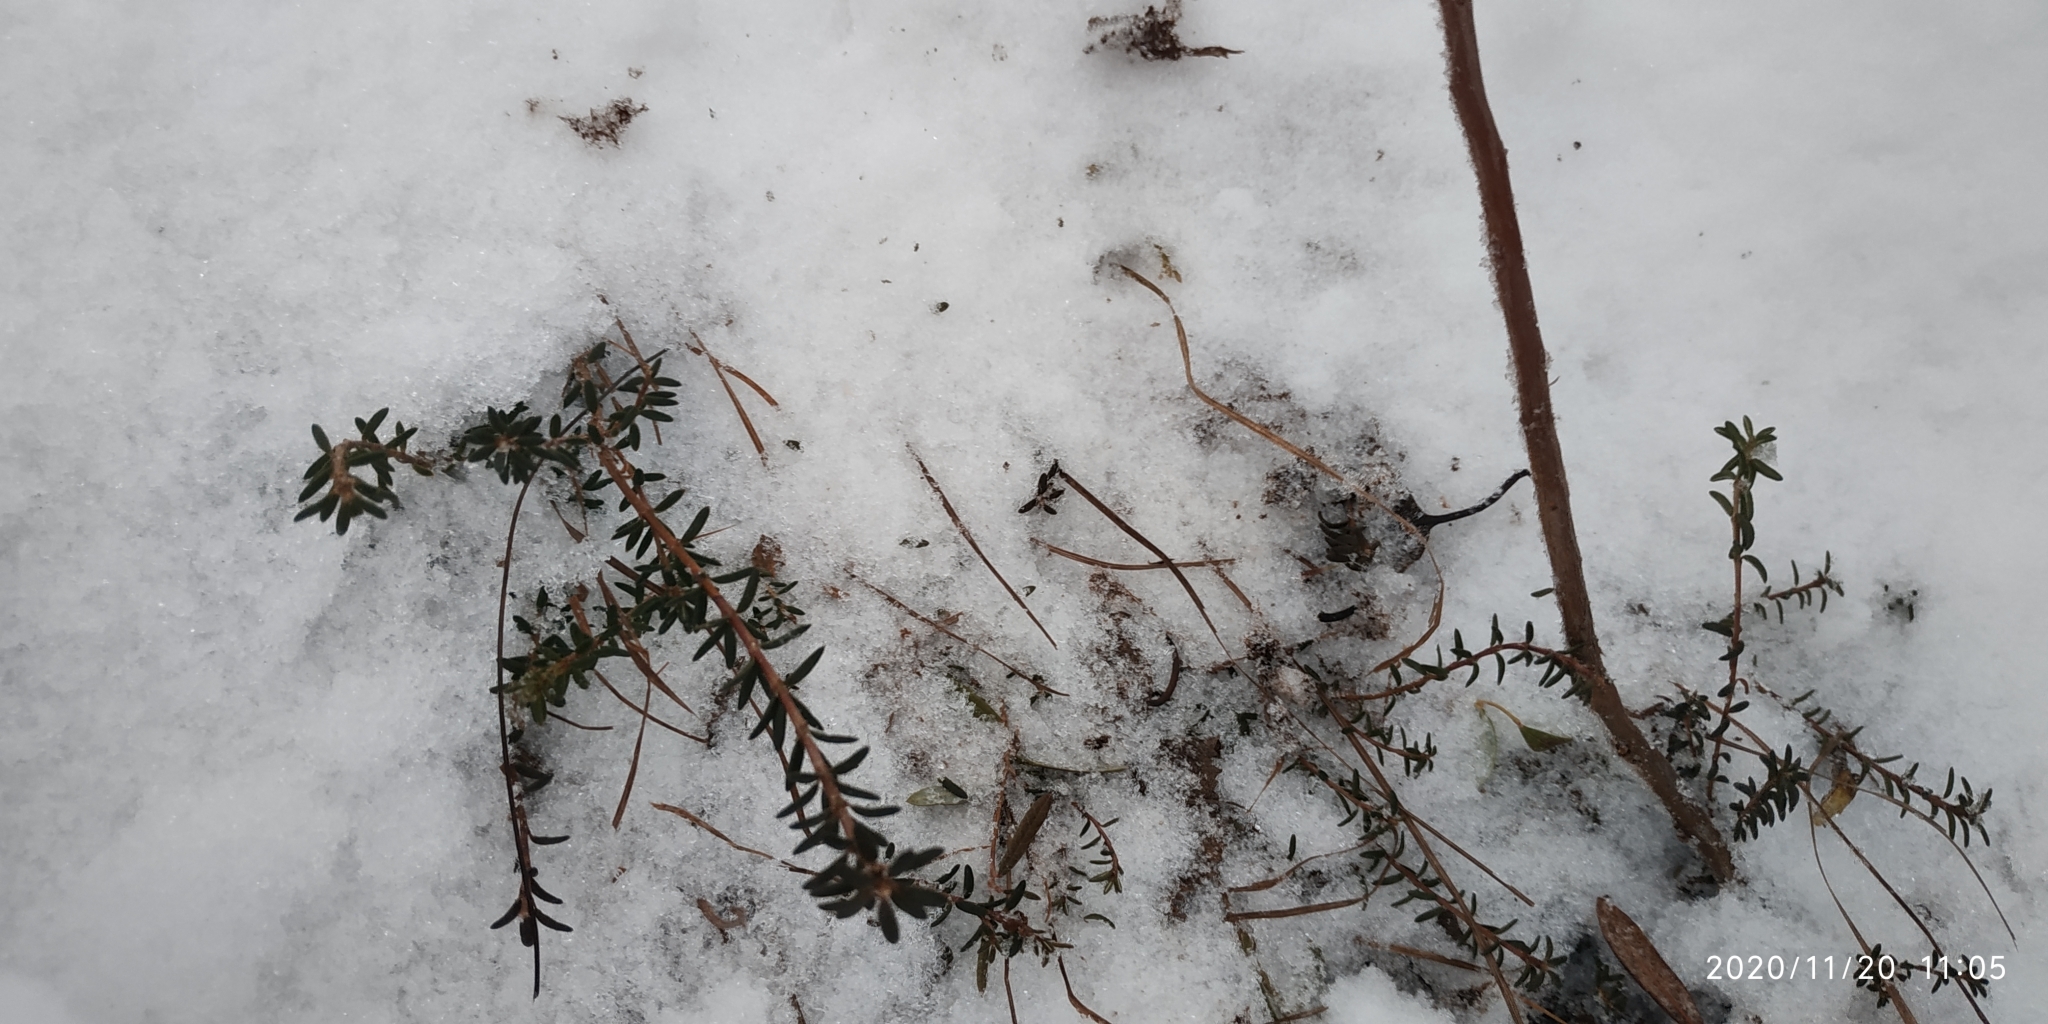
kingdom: Plantae
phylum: Tracheophyta
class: Magnoliopsida
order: Ericales
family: Ericaceae
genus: Empetrum
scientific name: Empetrum nigrum
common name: Black crowberry
